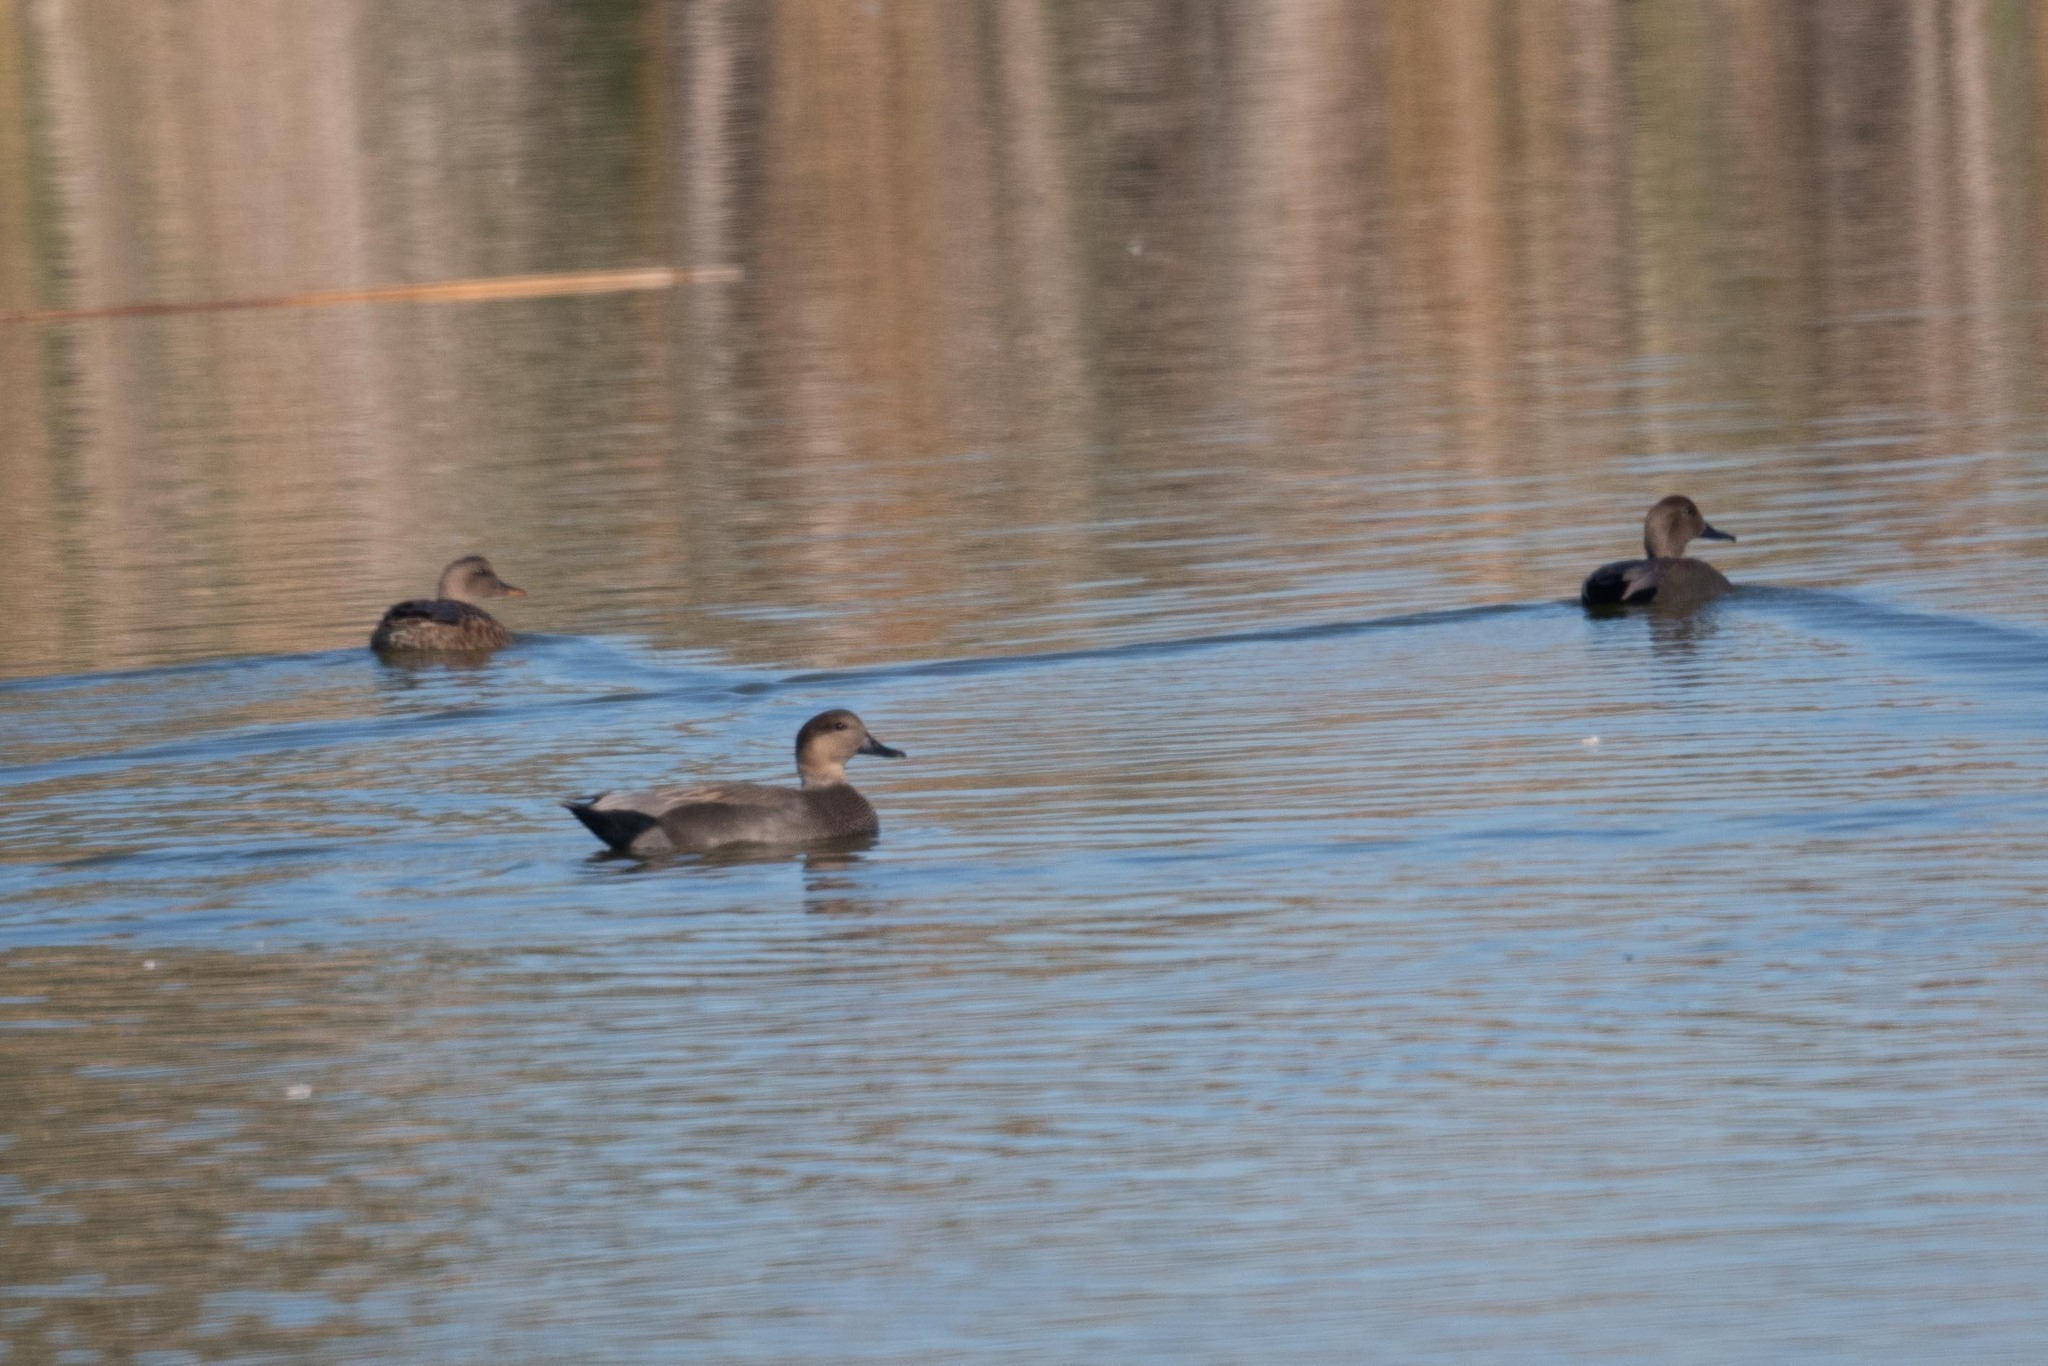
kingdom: Animalia
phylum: Chordata
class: Aves
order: Anseriformes
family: Anatidae
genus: Mareca
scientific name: Mareca strepera
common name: Gadwall
